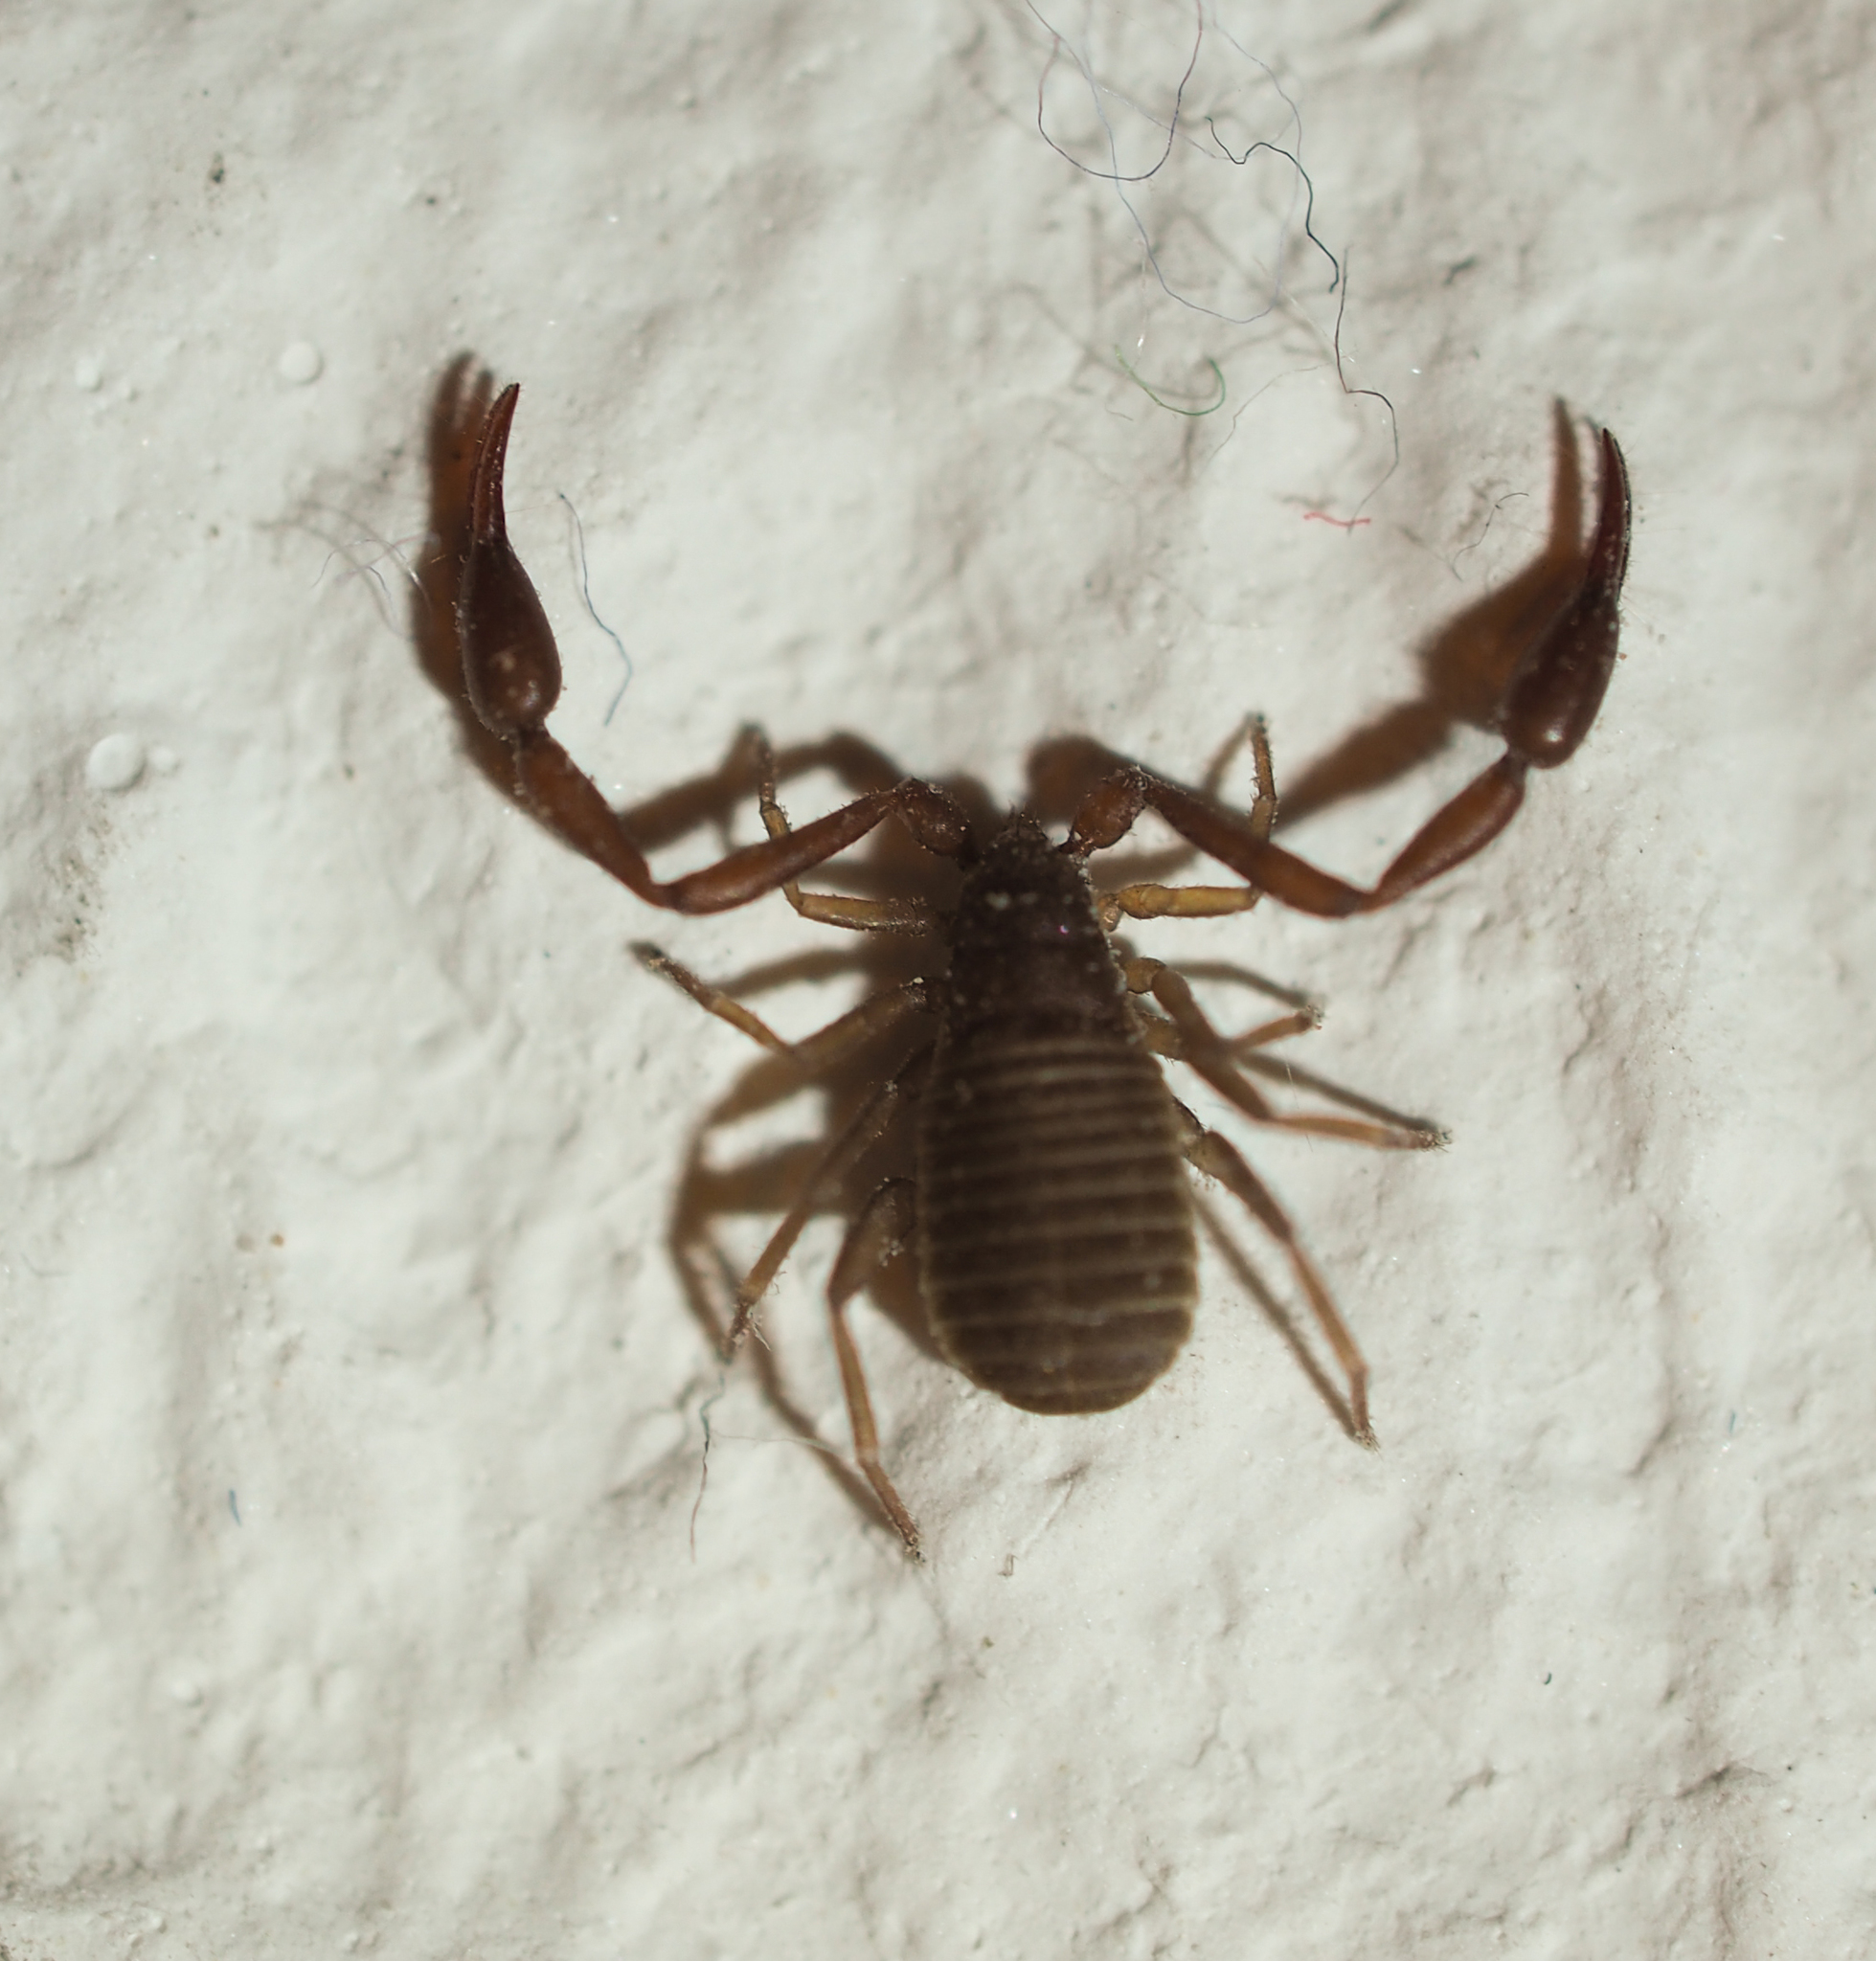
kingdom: Animalia
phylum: Arthropoda
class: Arachnida
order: Pseudoscorpiones
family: Cheliferidae
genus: Chelifer
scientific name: Chelifer cancroides
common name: House false-scorpion
